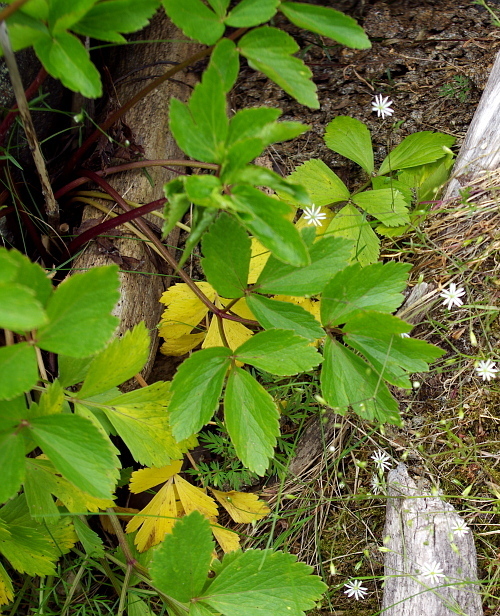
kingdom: Plantae
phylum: Tracheophyta
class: Magnoliopsida
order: Apiales
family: Apiaceae
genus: Ligusticum
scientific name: Ligusticum scothicum
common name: Beach lovage
